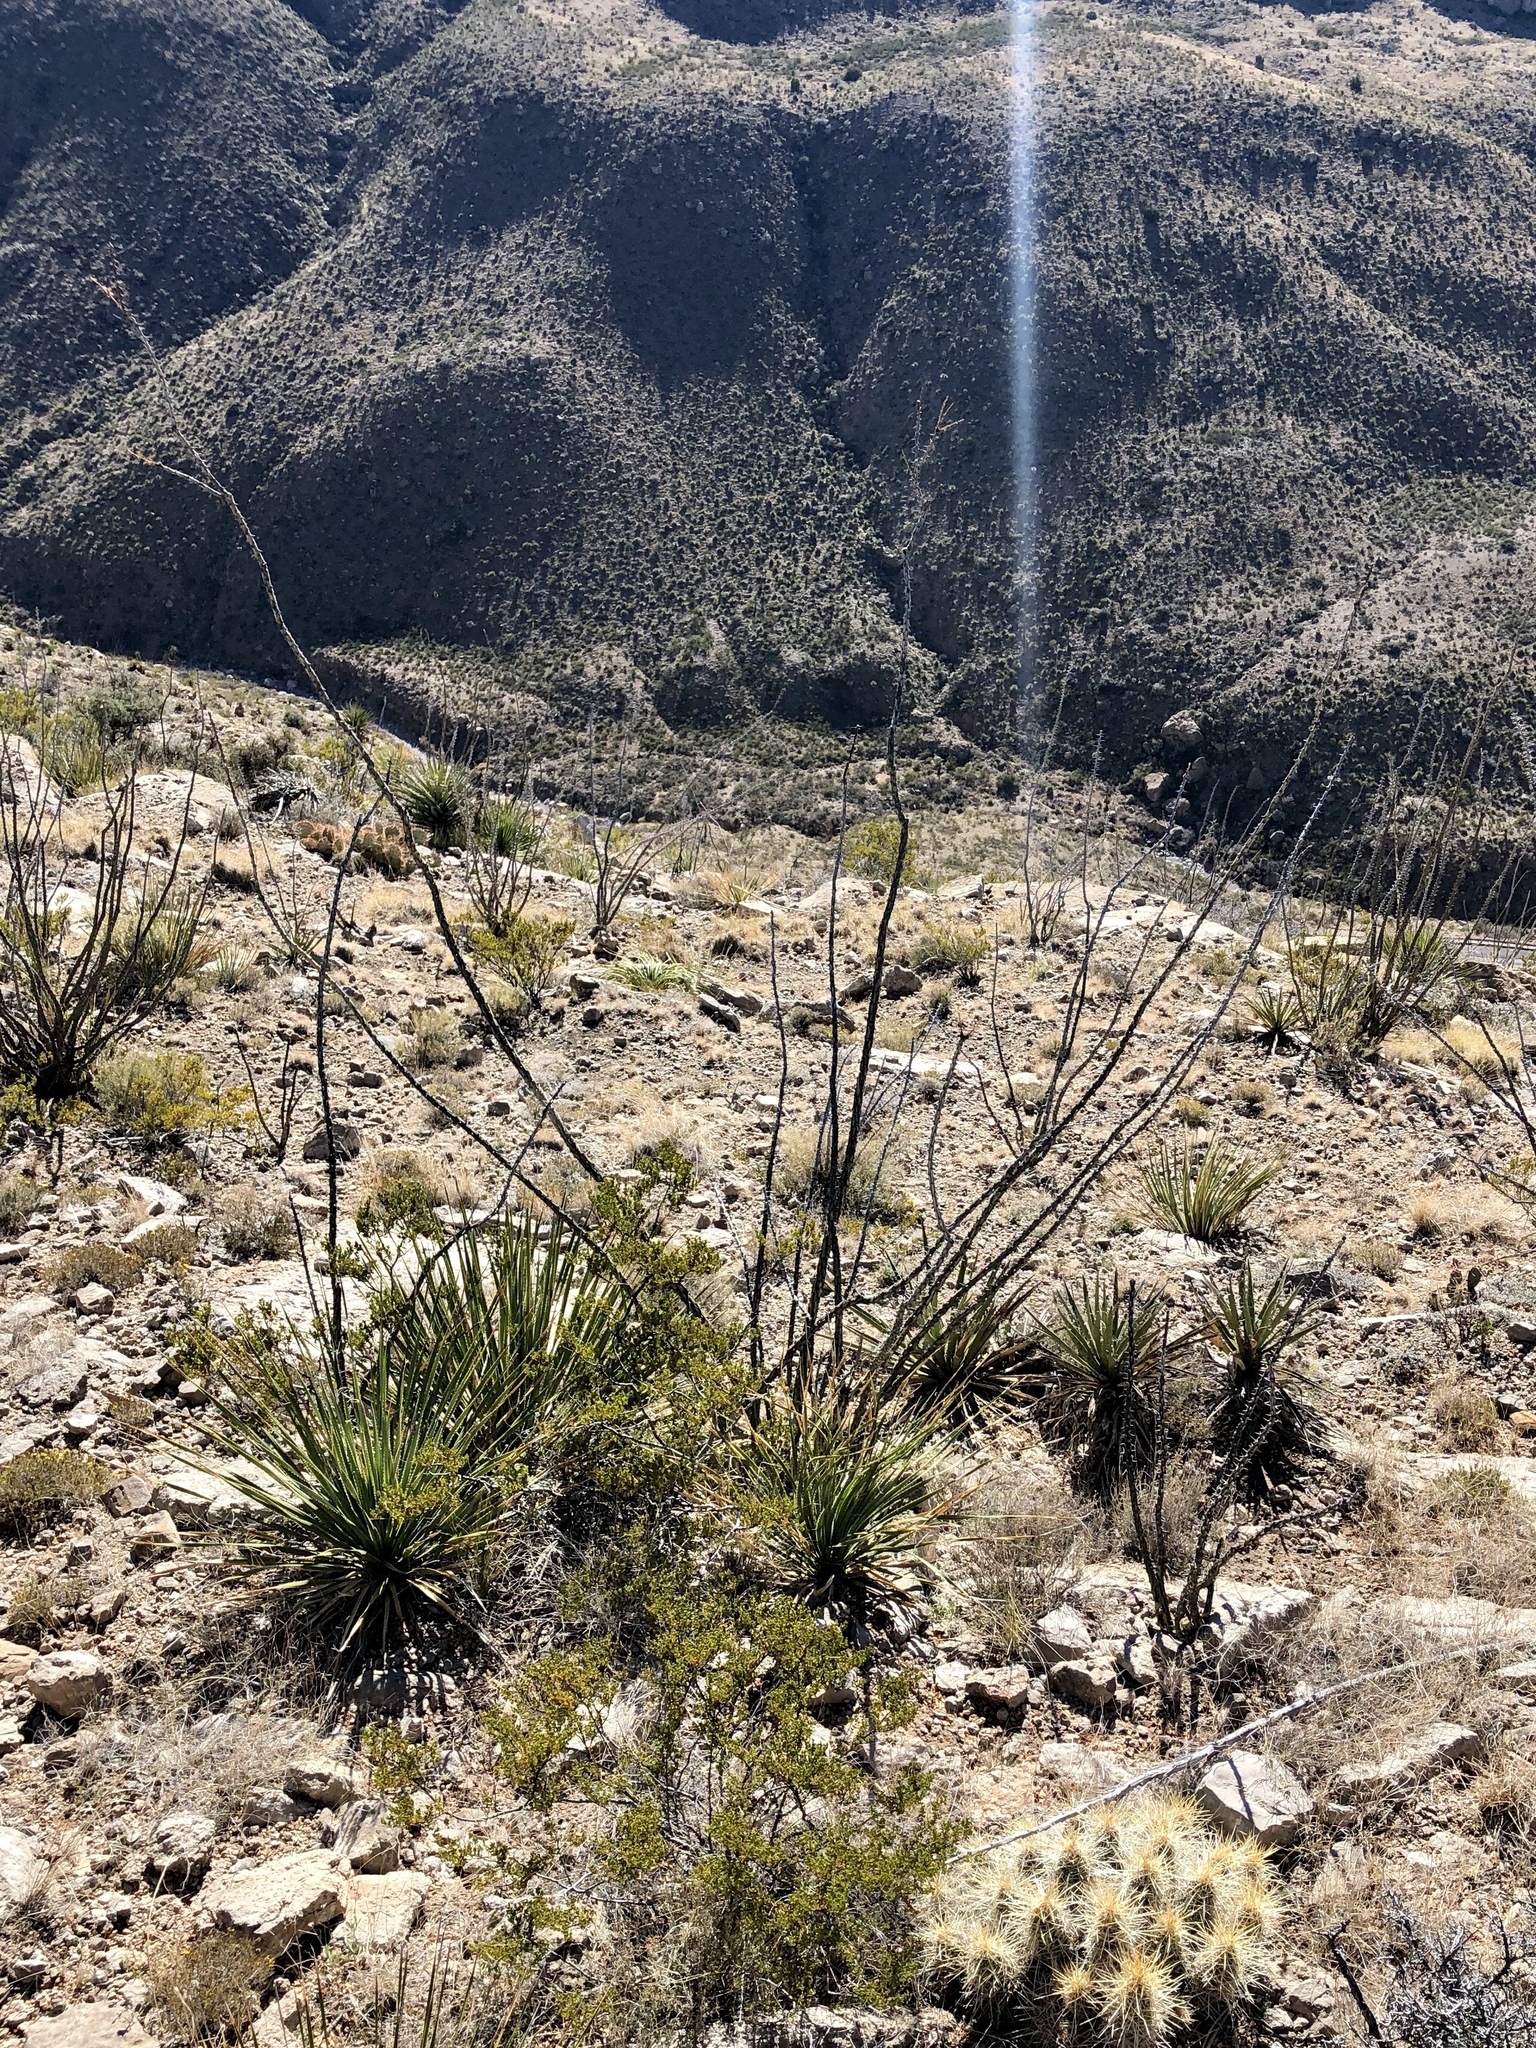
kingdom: Plantae
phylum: Tracheophyta
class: Magnoliopsida
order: Ericales
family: Fouquieriaceae
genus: Fouquieria
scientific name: Fouquieria splendens
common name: Vine-cactus
